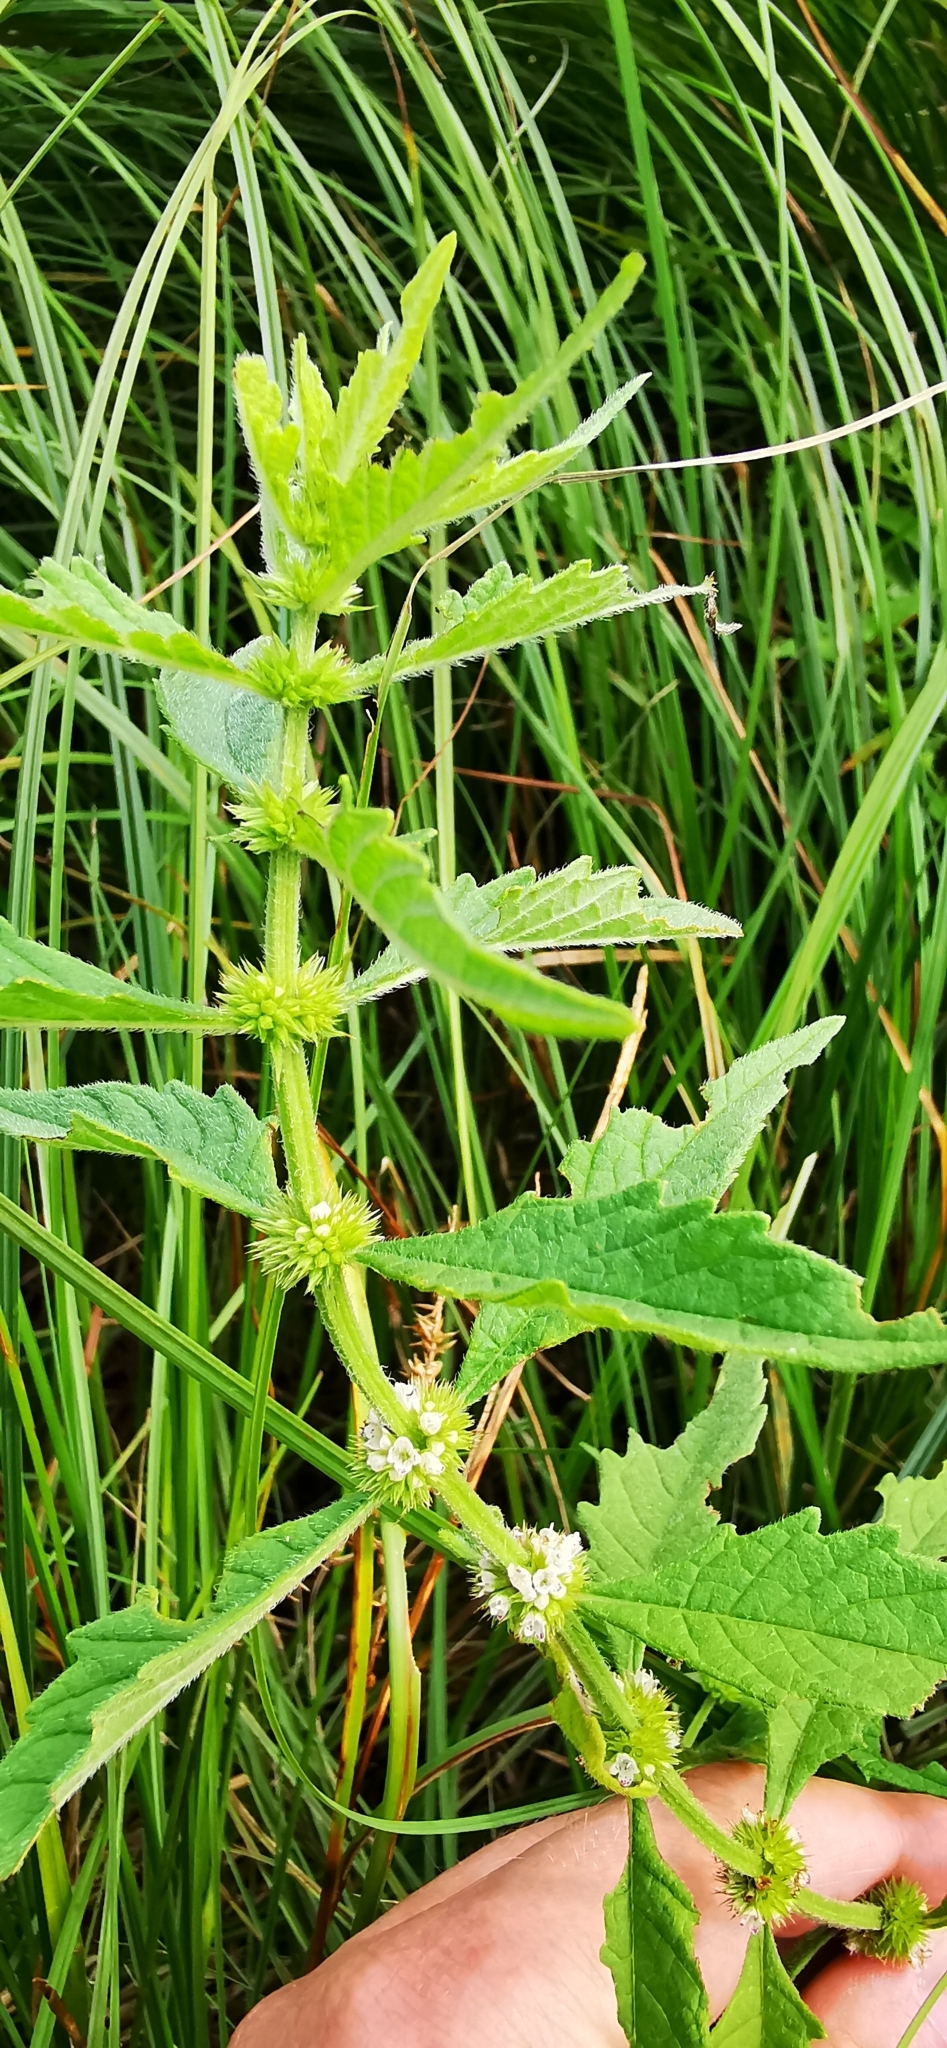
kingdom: Plantae
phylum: Tracheophyta
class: Magnoliopsida
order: Lamiales
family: Lamiaceae
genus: Lycopus
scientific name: Lycopus europaeus
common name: European bugleweed
